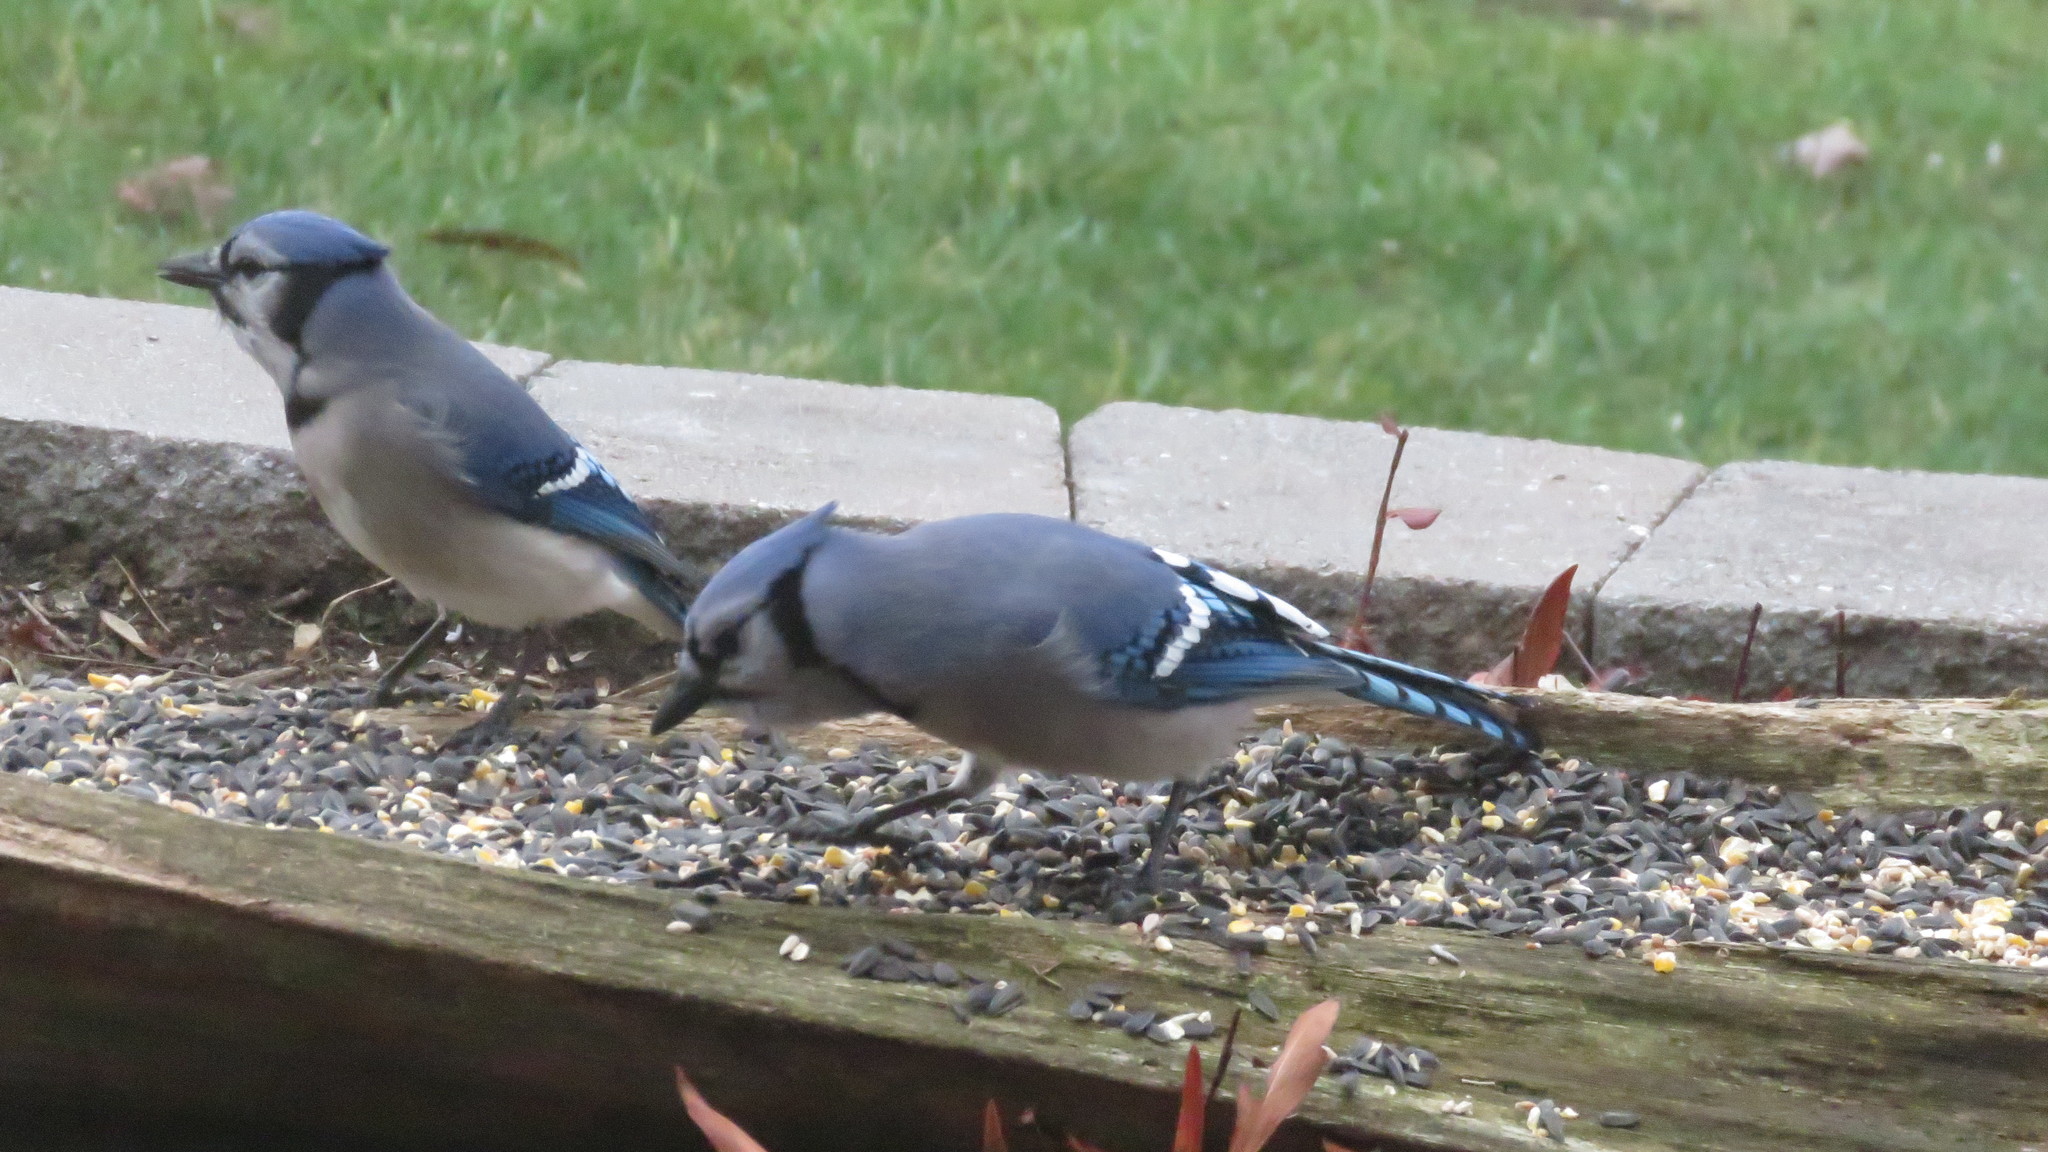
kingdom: Animalia
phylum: Chordata
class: Aves
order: Passeriformes
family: Corvidae
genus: Cyanocitta
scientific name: Cyanocitta cristata
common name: Blue jay
